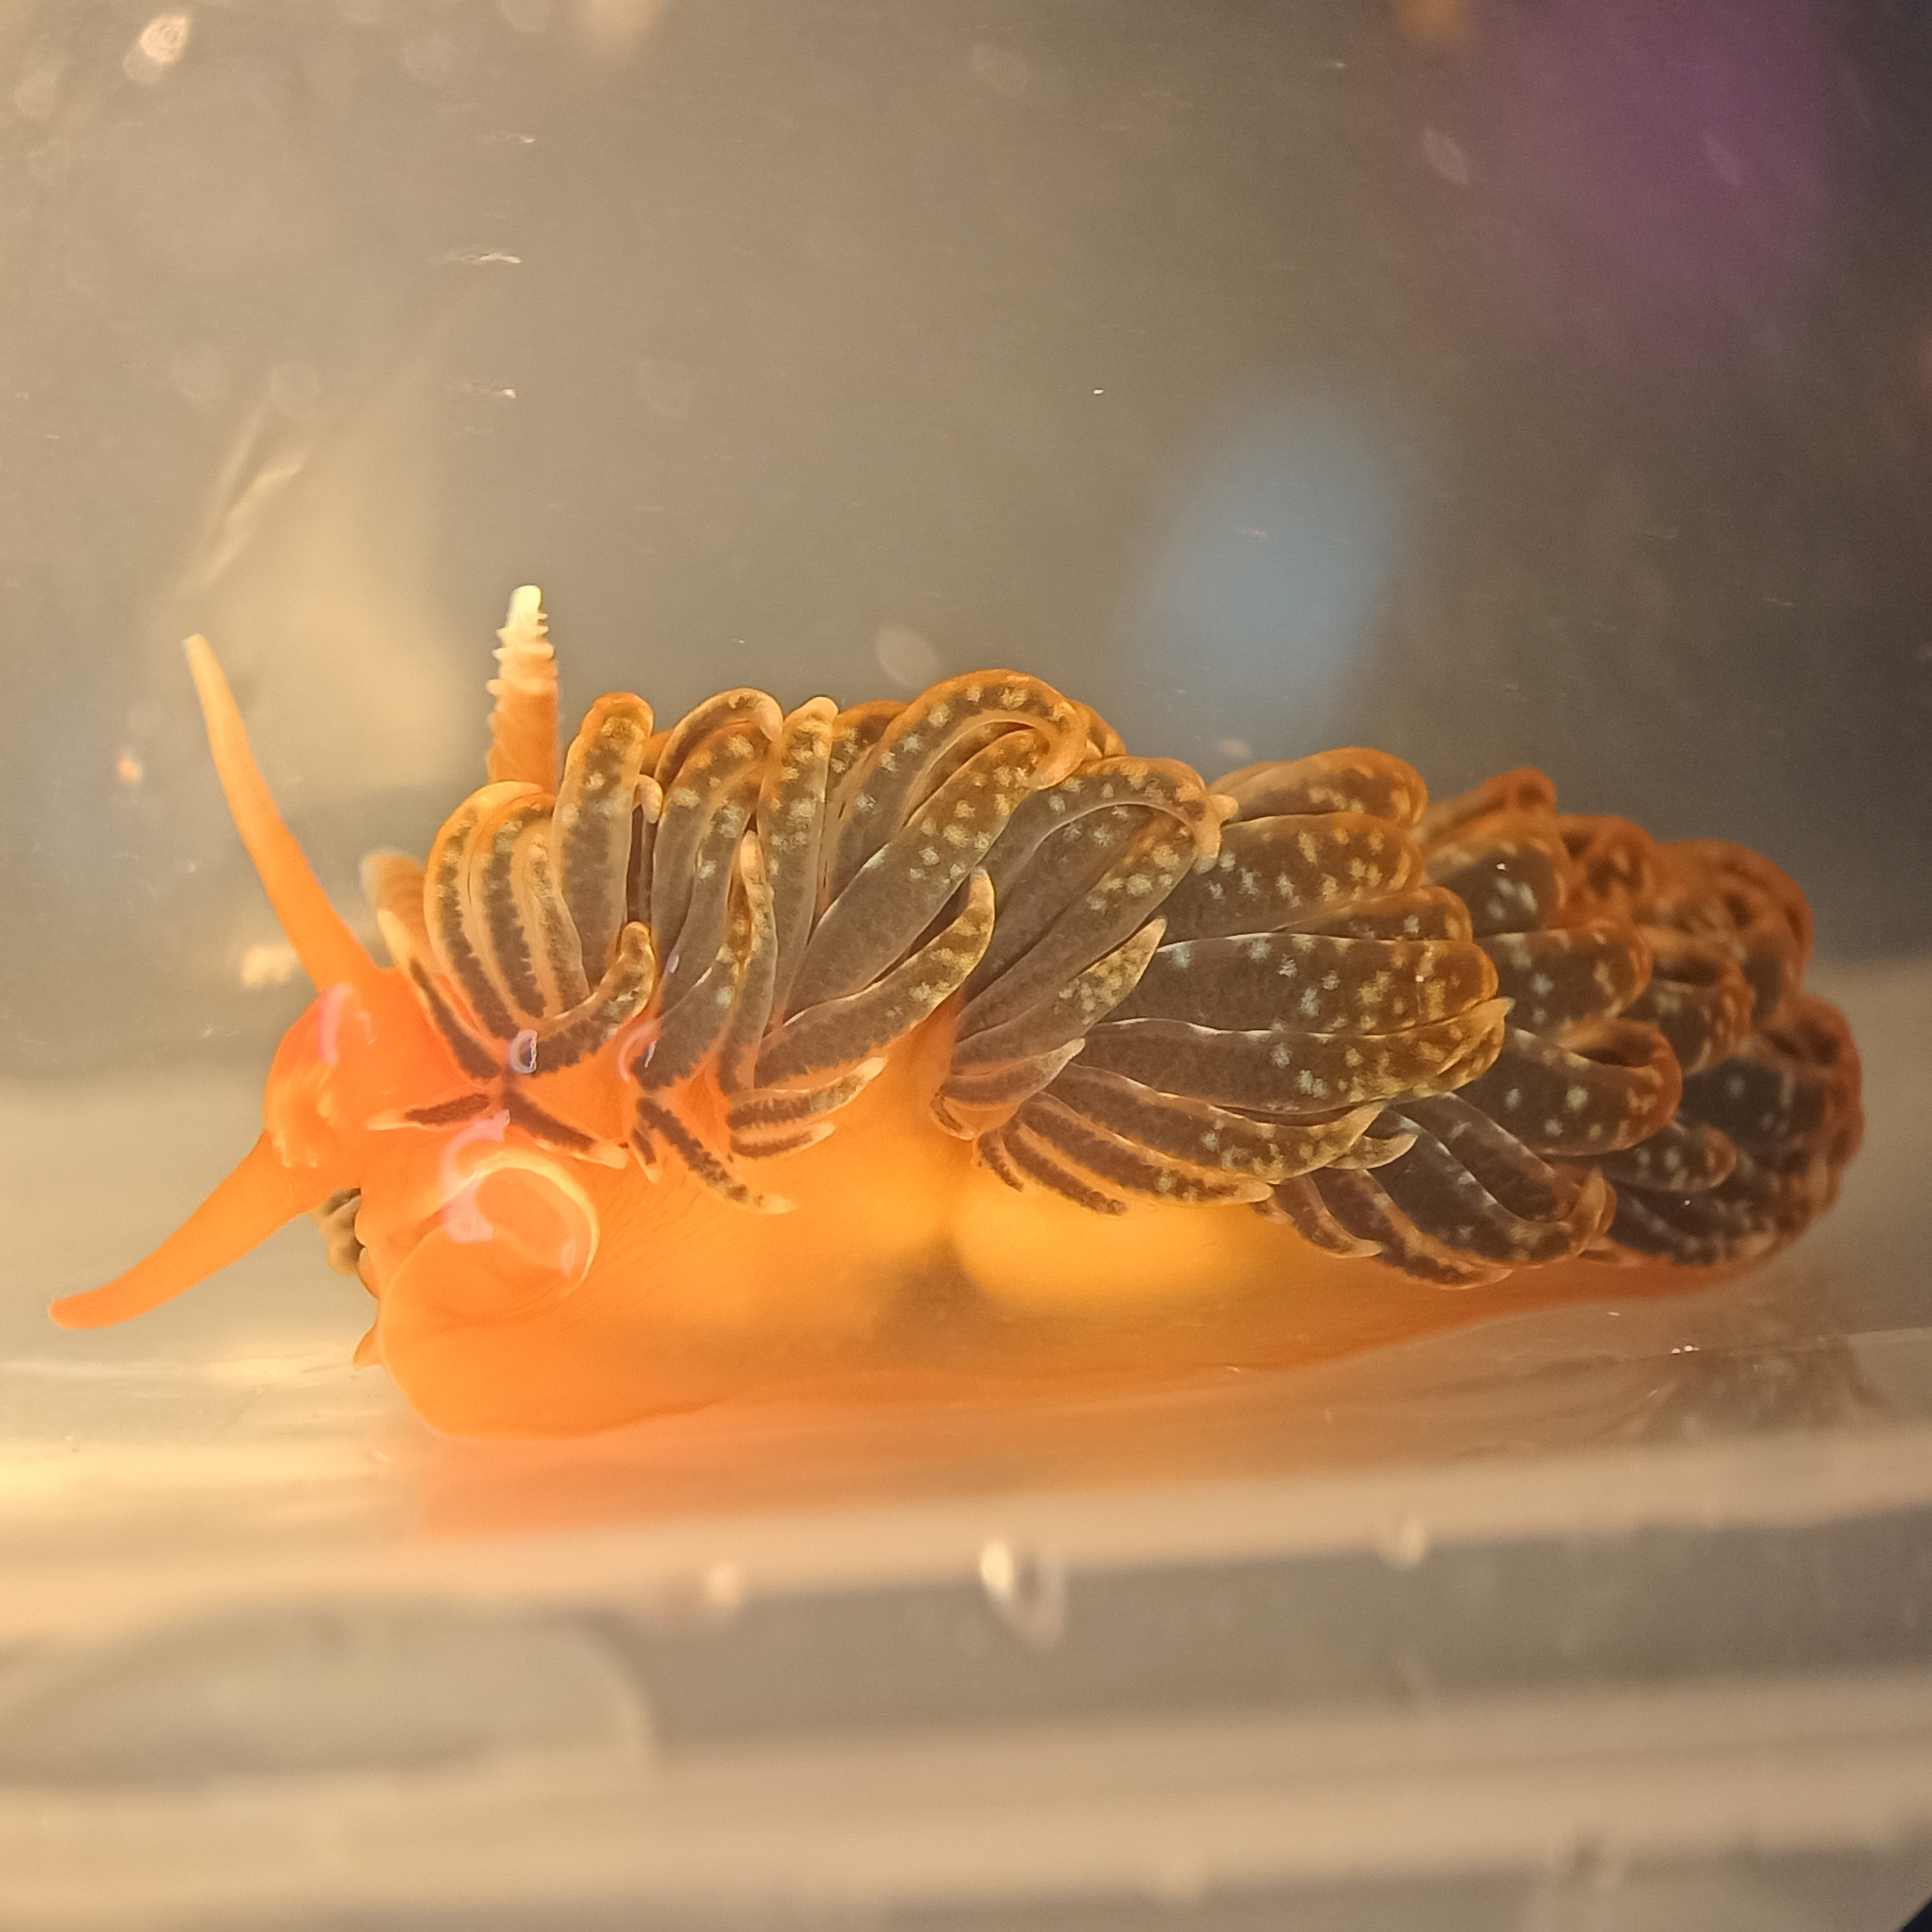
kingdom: Animalia
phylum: Mollusca
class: Gastropoda
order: Nudibranchia
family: Aeolidiidae
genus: Spurilla
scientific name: Spurilla braziliana
